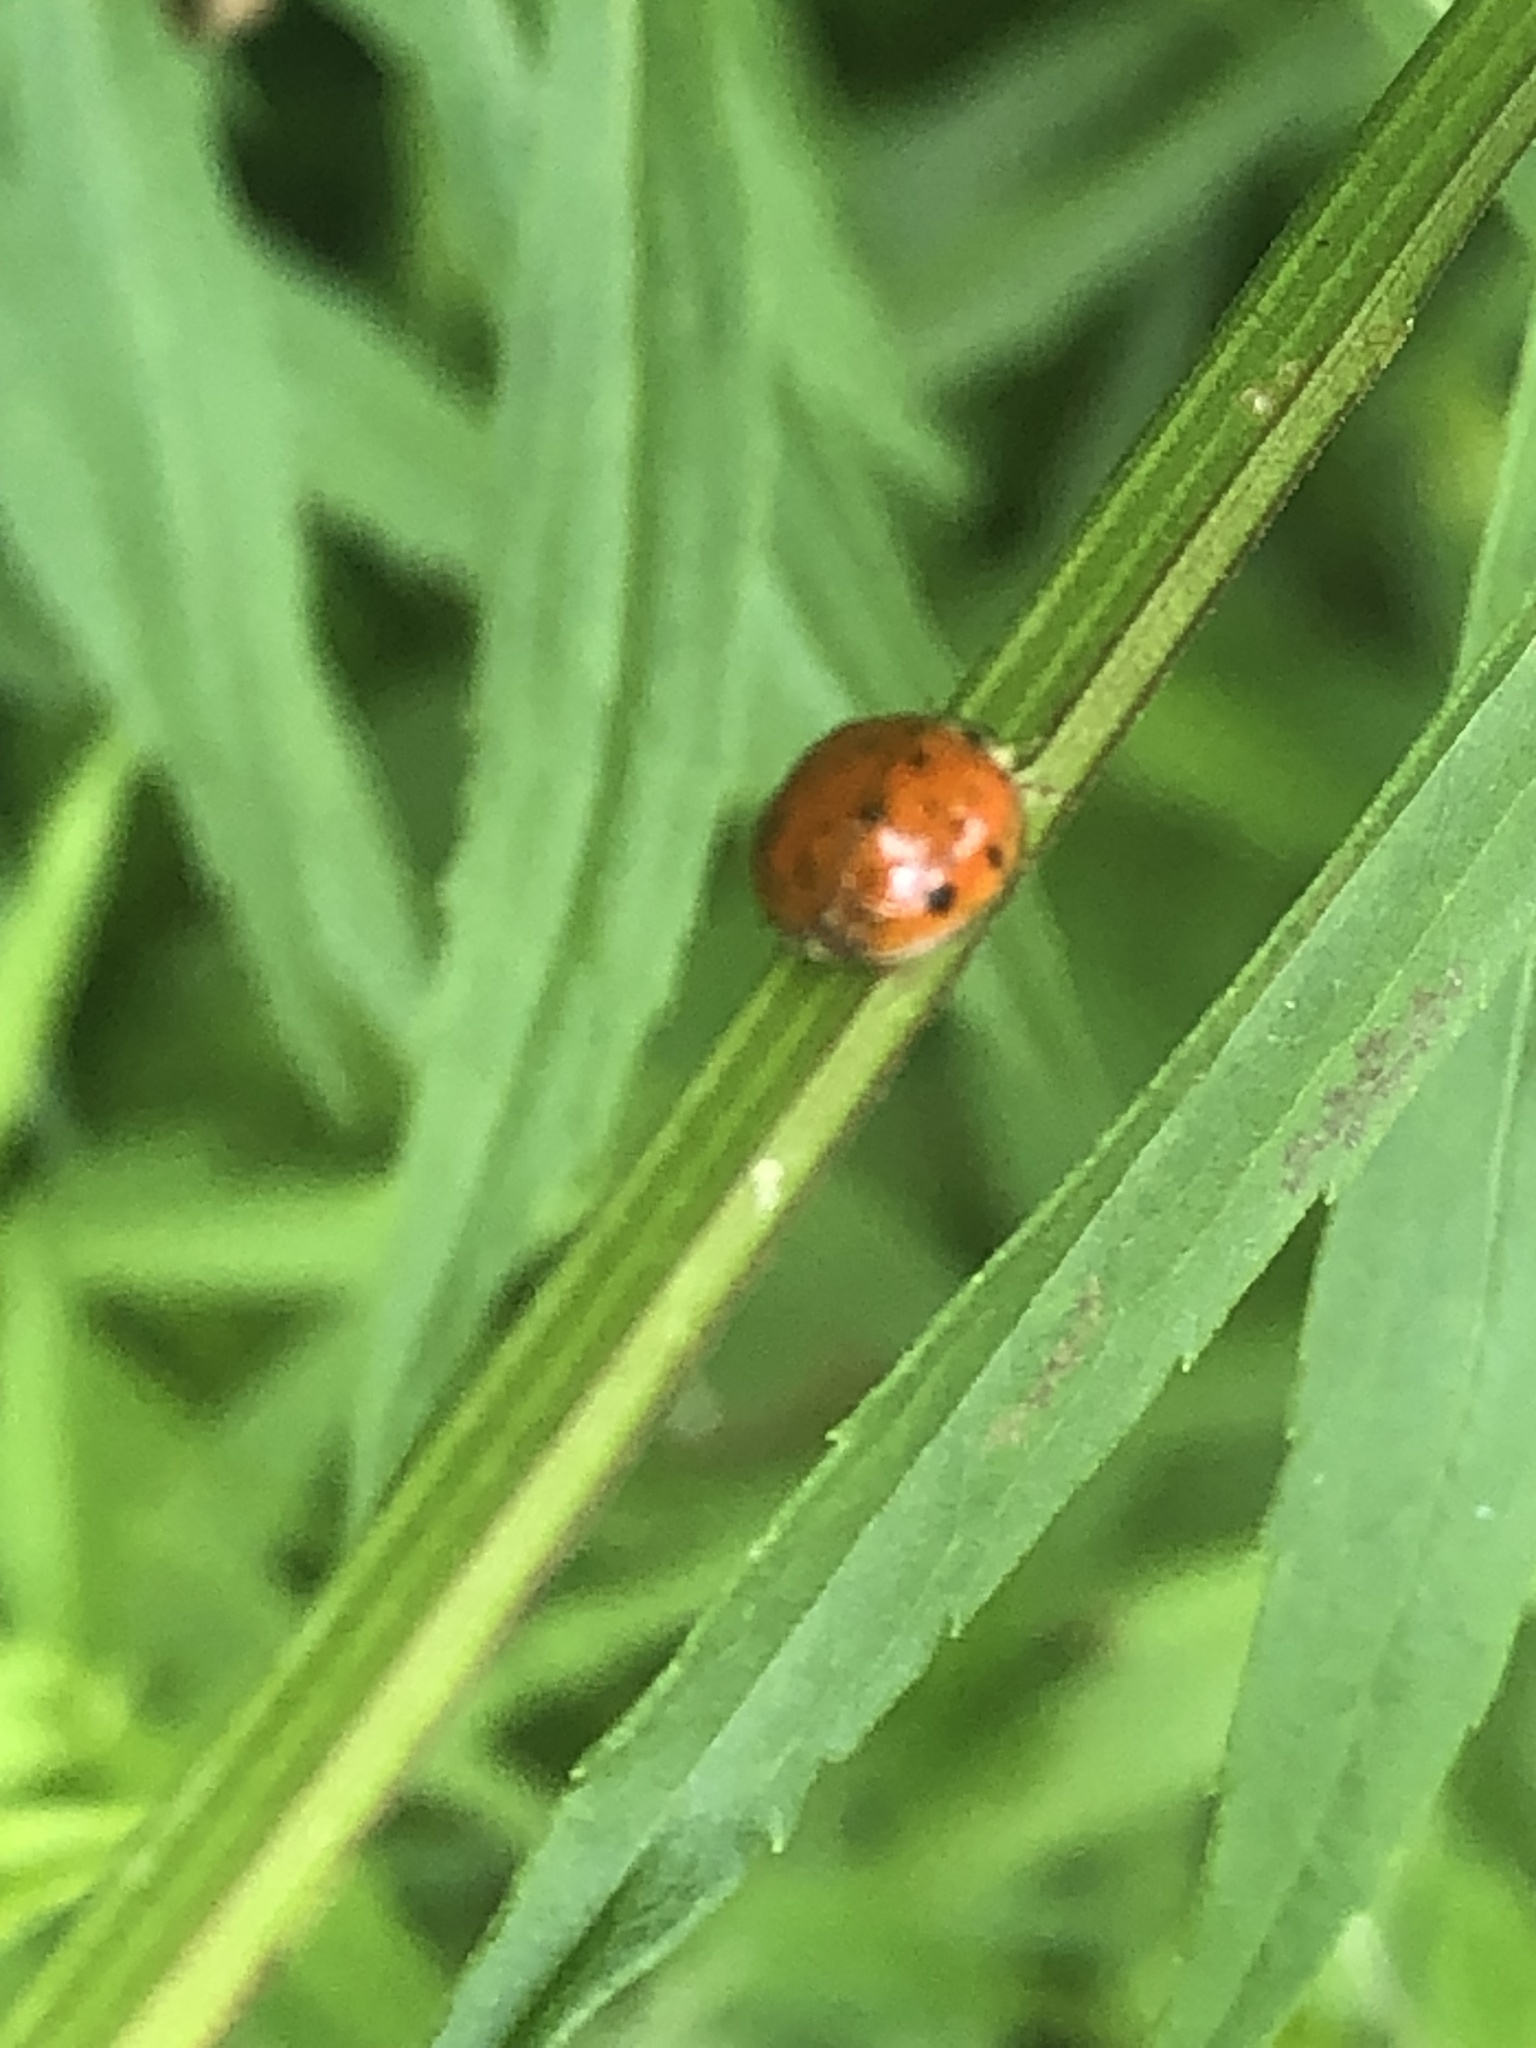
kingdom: Animalia
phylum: Arthropoda
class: Insecta
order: Coleoptera
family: Coccinellidae
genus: Harmonia
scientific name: Harmonia axyridis
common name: Harlequin ladybird
